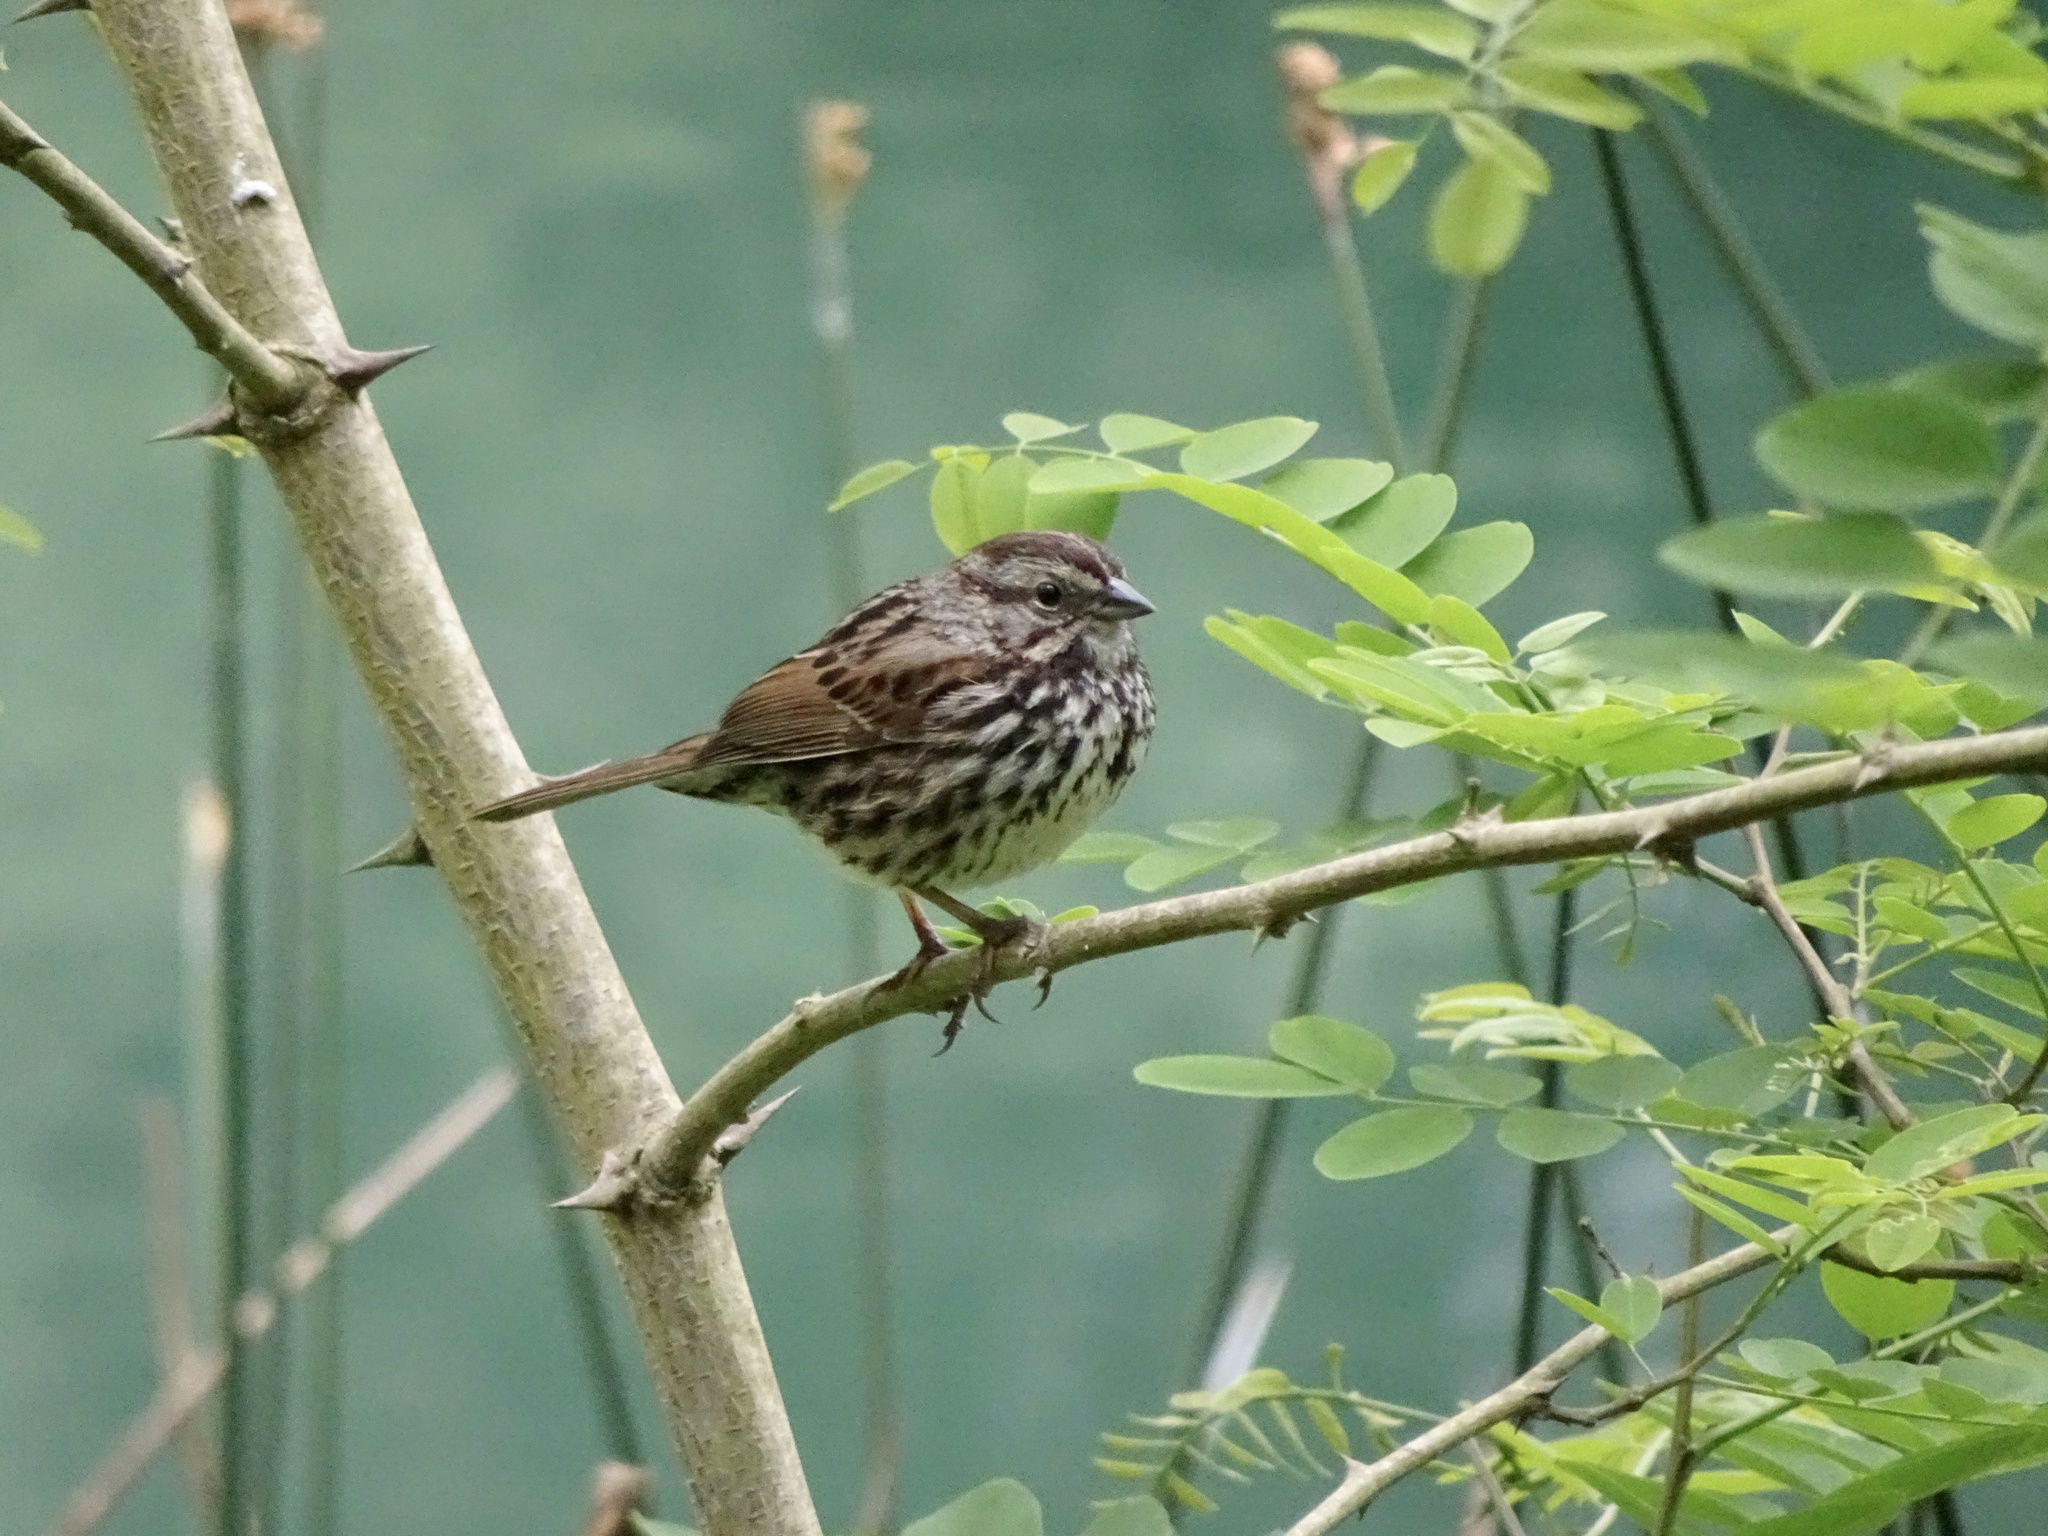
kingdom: Animalia
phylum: Chordata
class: Aves
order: Passeriformes
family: Passerellidae
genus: Melospiza
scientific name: Melospiza melodia
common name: Song sparrow
